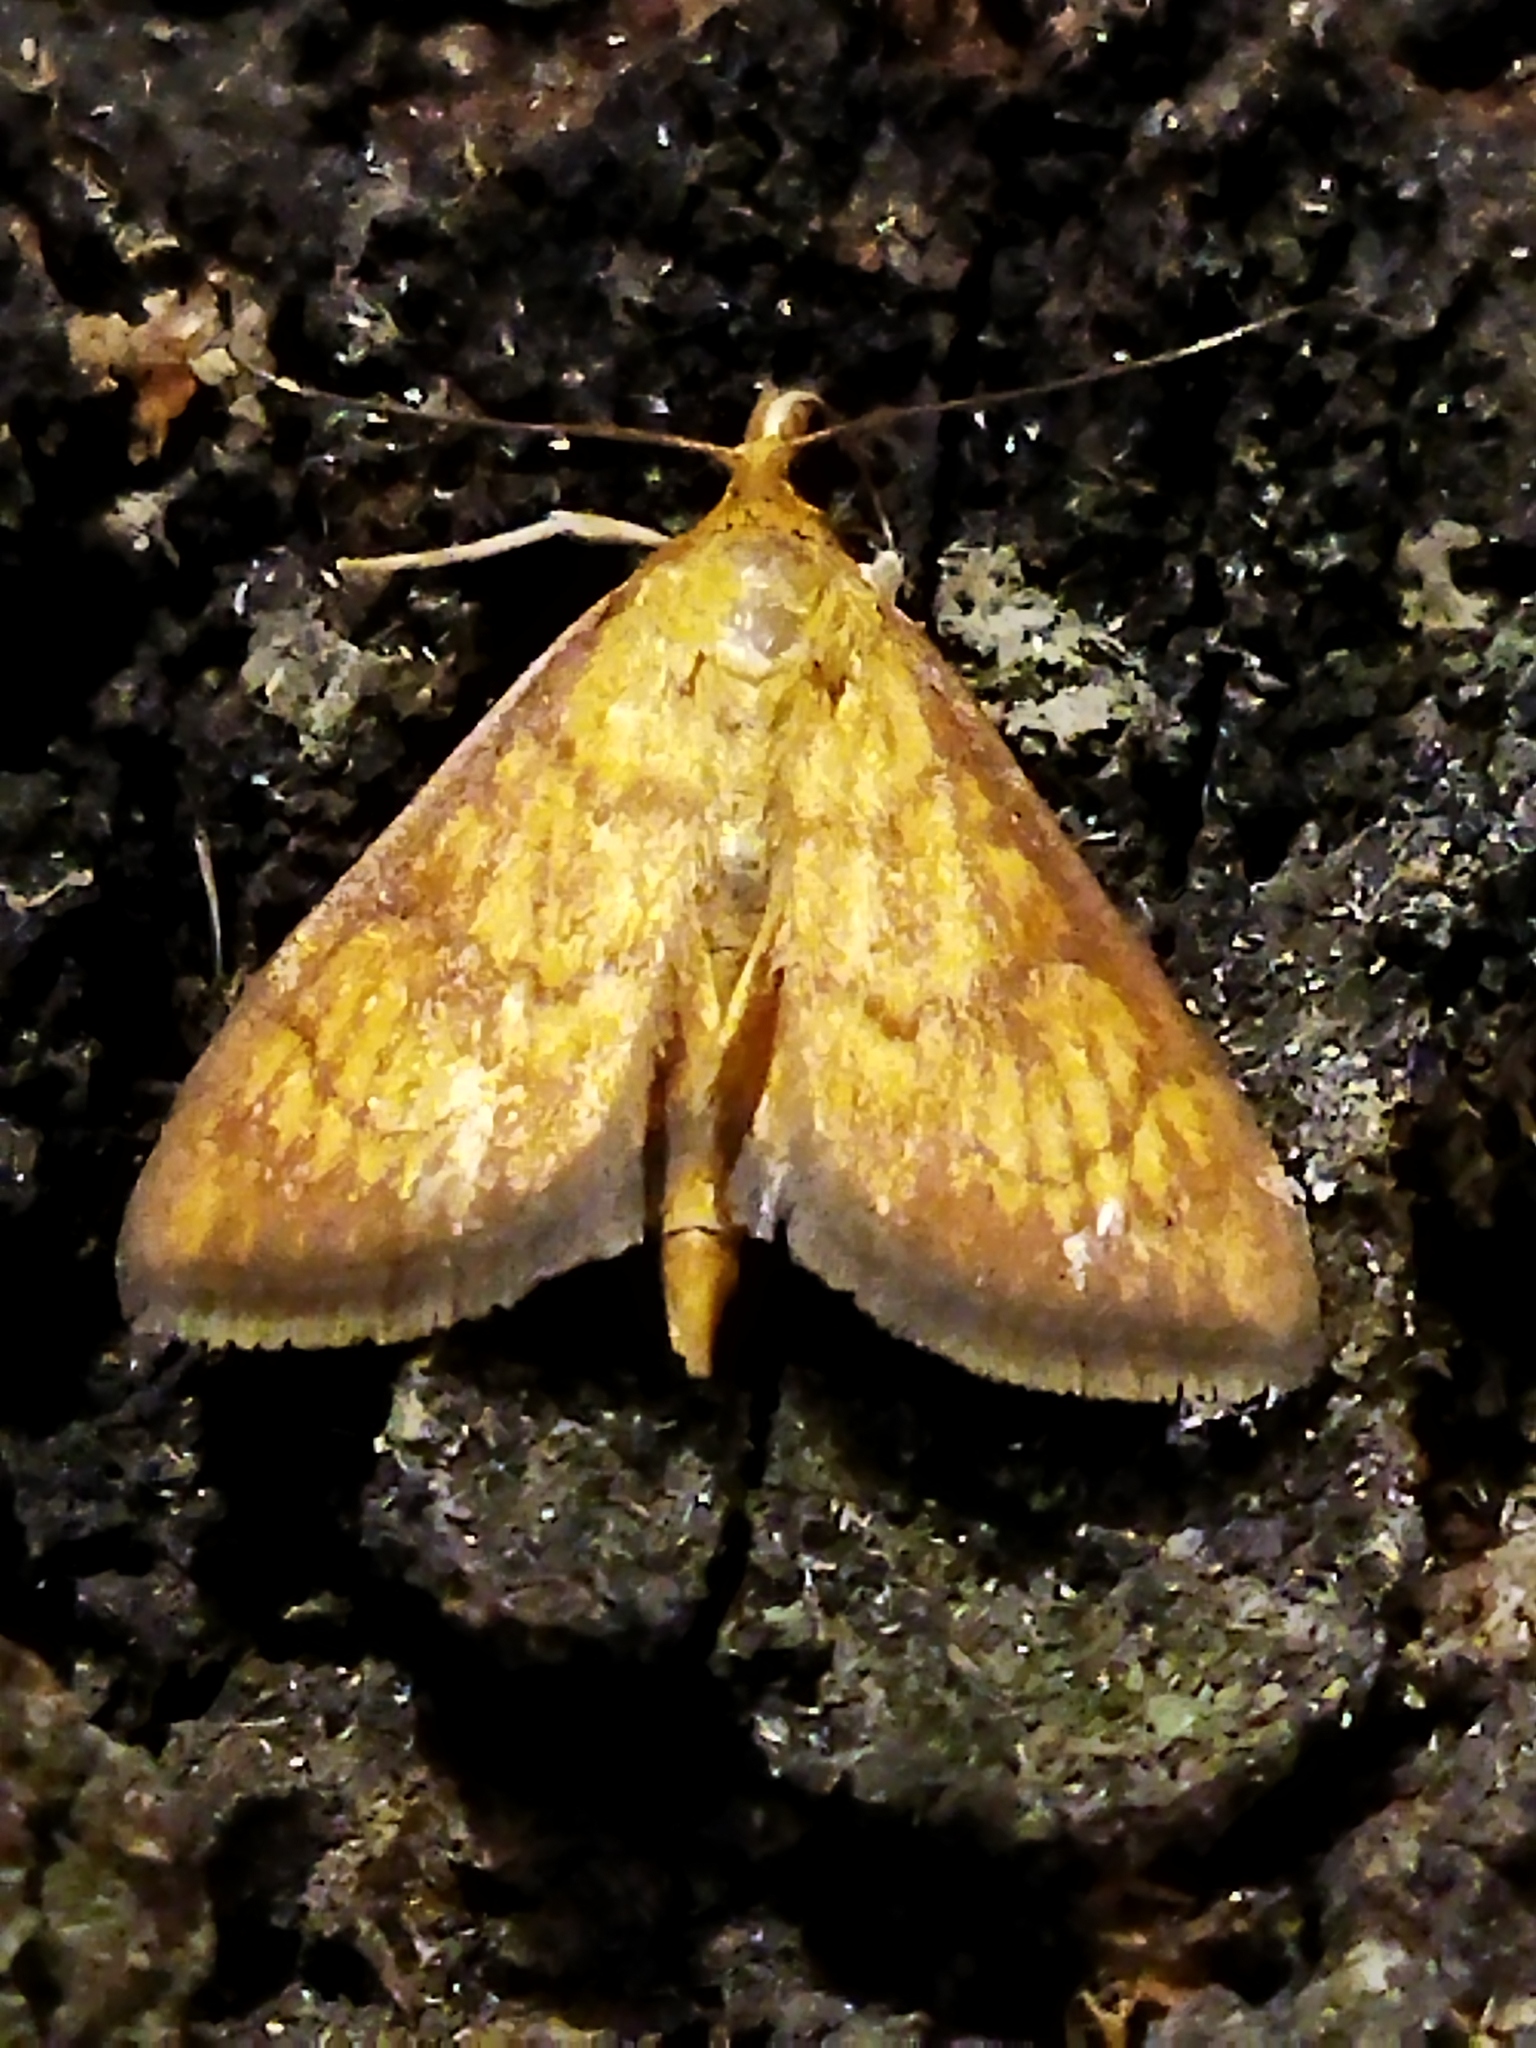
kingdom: Animalia
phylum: Arthropoda
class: Insecta
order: Lepidoptera
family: Crambidae
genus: Ecpyrrhorrhoe
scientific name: Ecpyrrhorrhoe rubiginalis
